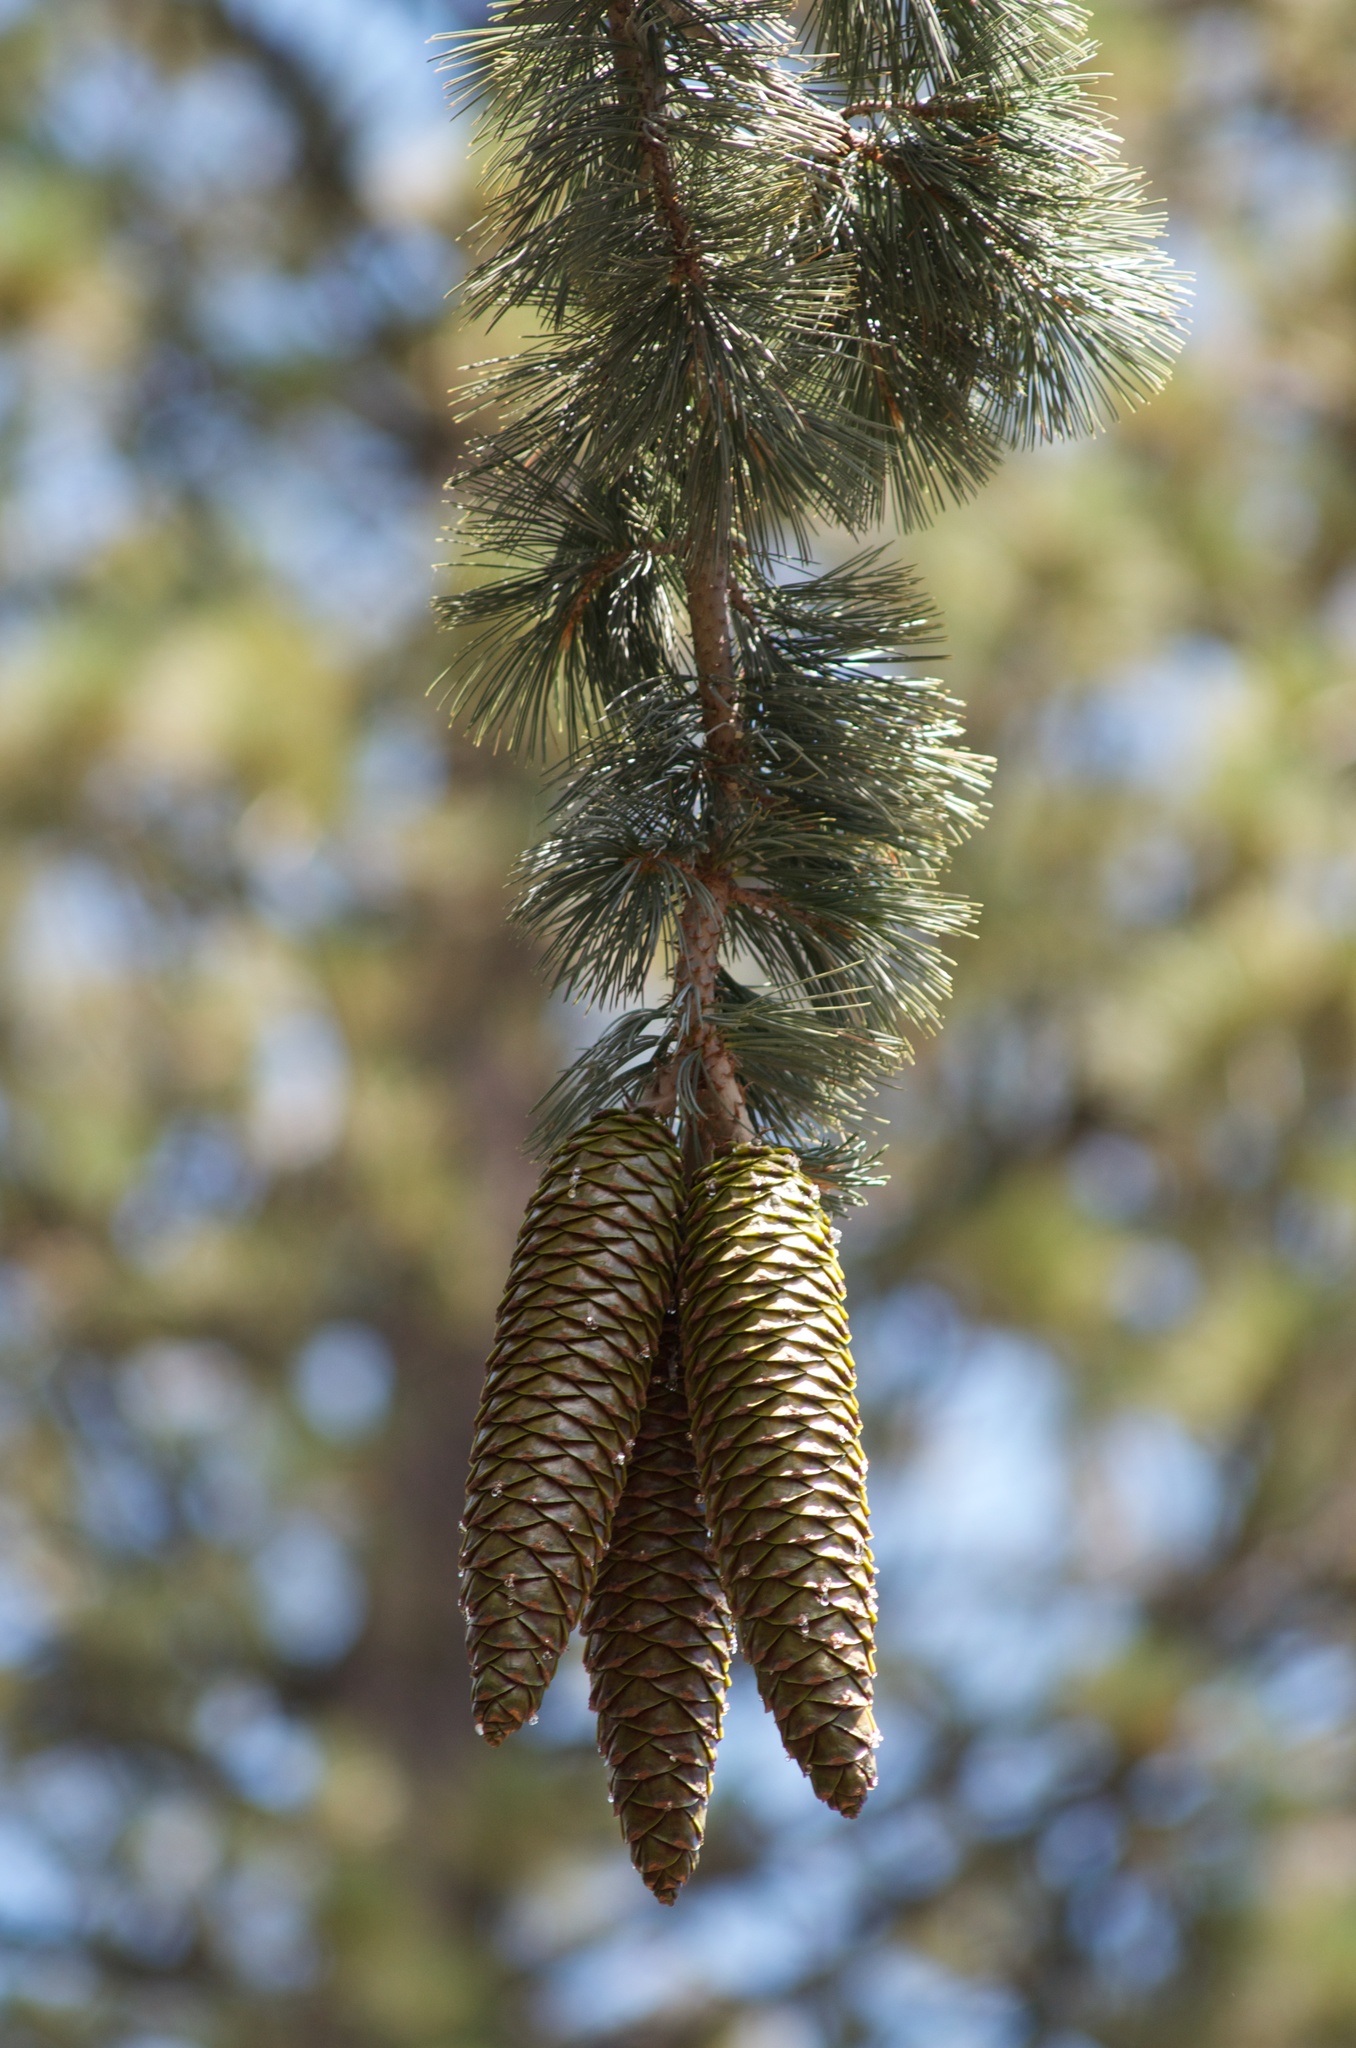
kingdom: Plantae
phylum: Tracheophyta
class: Pinopsida
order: Pinales
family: Pinaceae
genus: Pinus
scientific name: Pinus lambertiana
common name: Sugar pine
